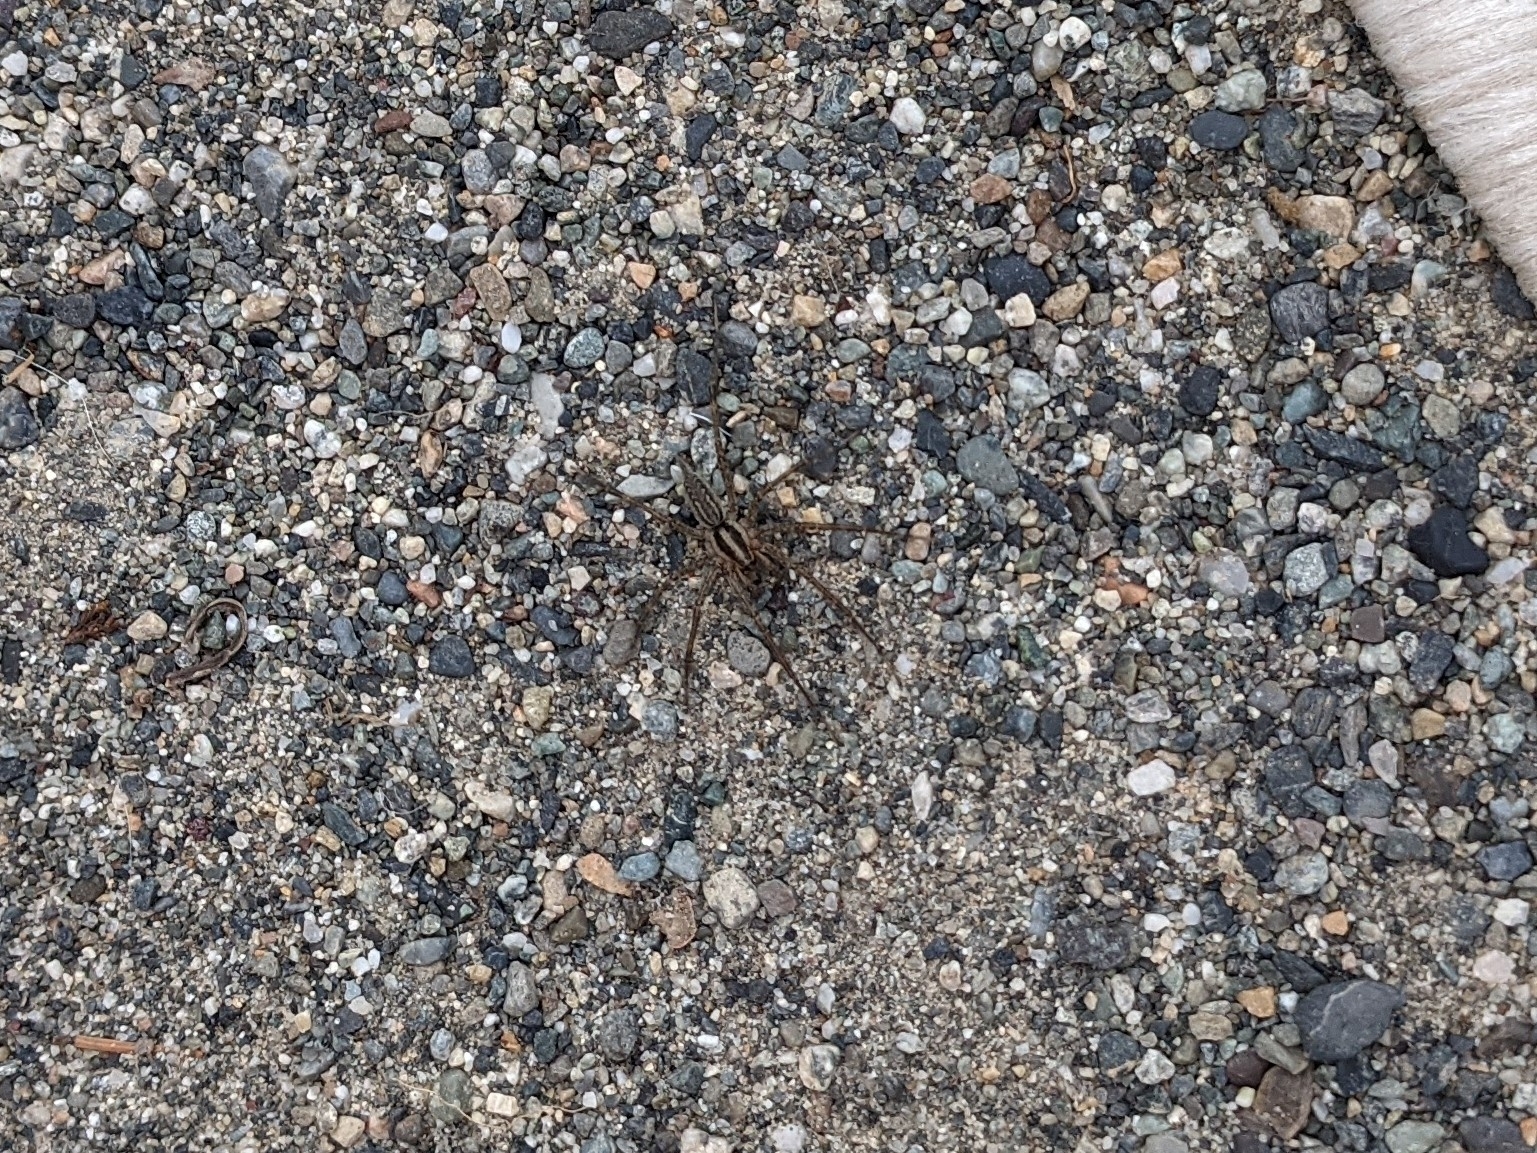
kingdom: Animalia
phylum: Arthropoda
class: Arachnida
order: Araneae
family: Agelenidae
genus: Agelenopsis
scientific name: Agelenopsis
